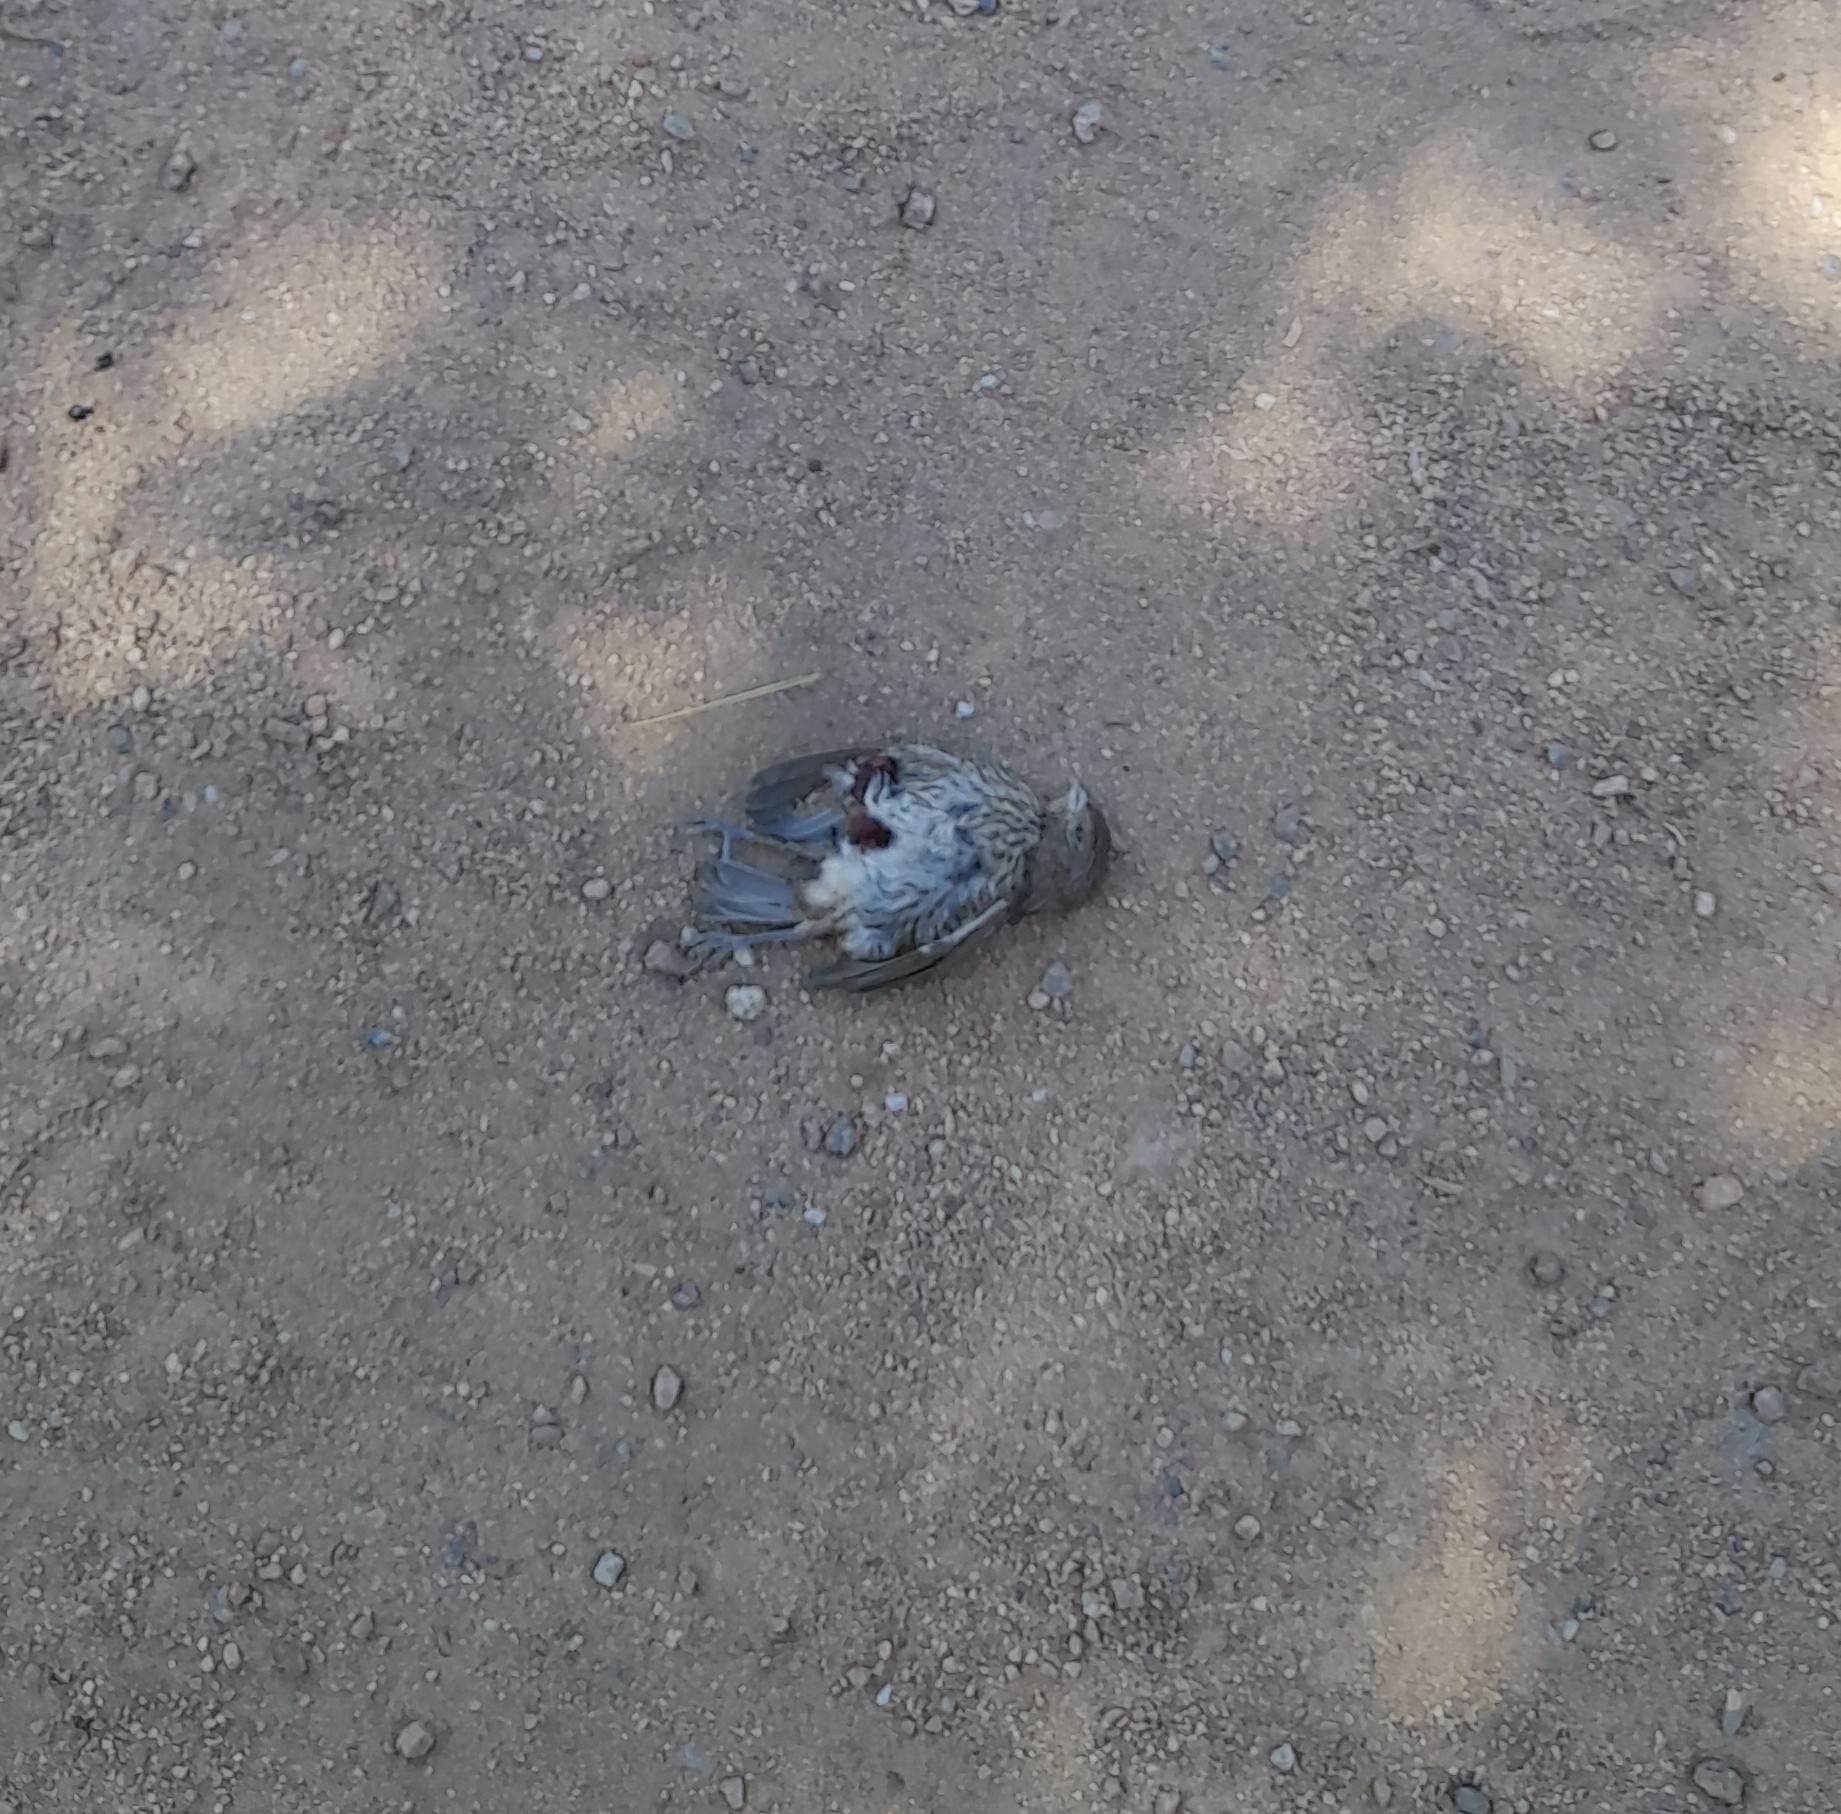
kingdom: Animalia
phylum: Chordata
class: Aves
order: Passeriformes
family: Thraupidae
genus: Sicalis
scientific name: Sicalis flaveola
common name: Saffron finch
